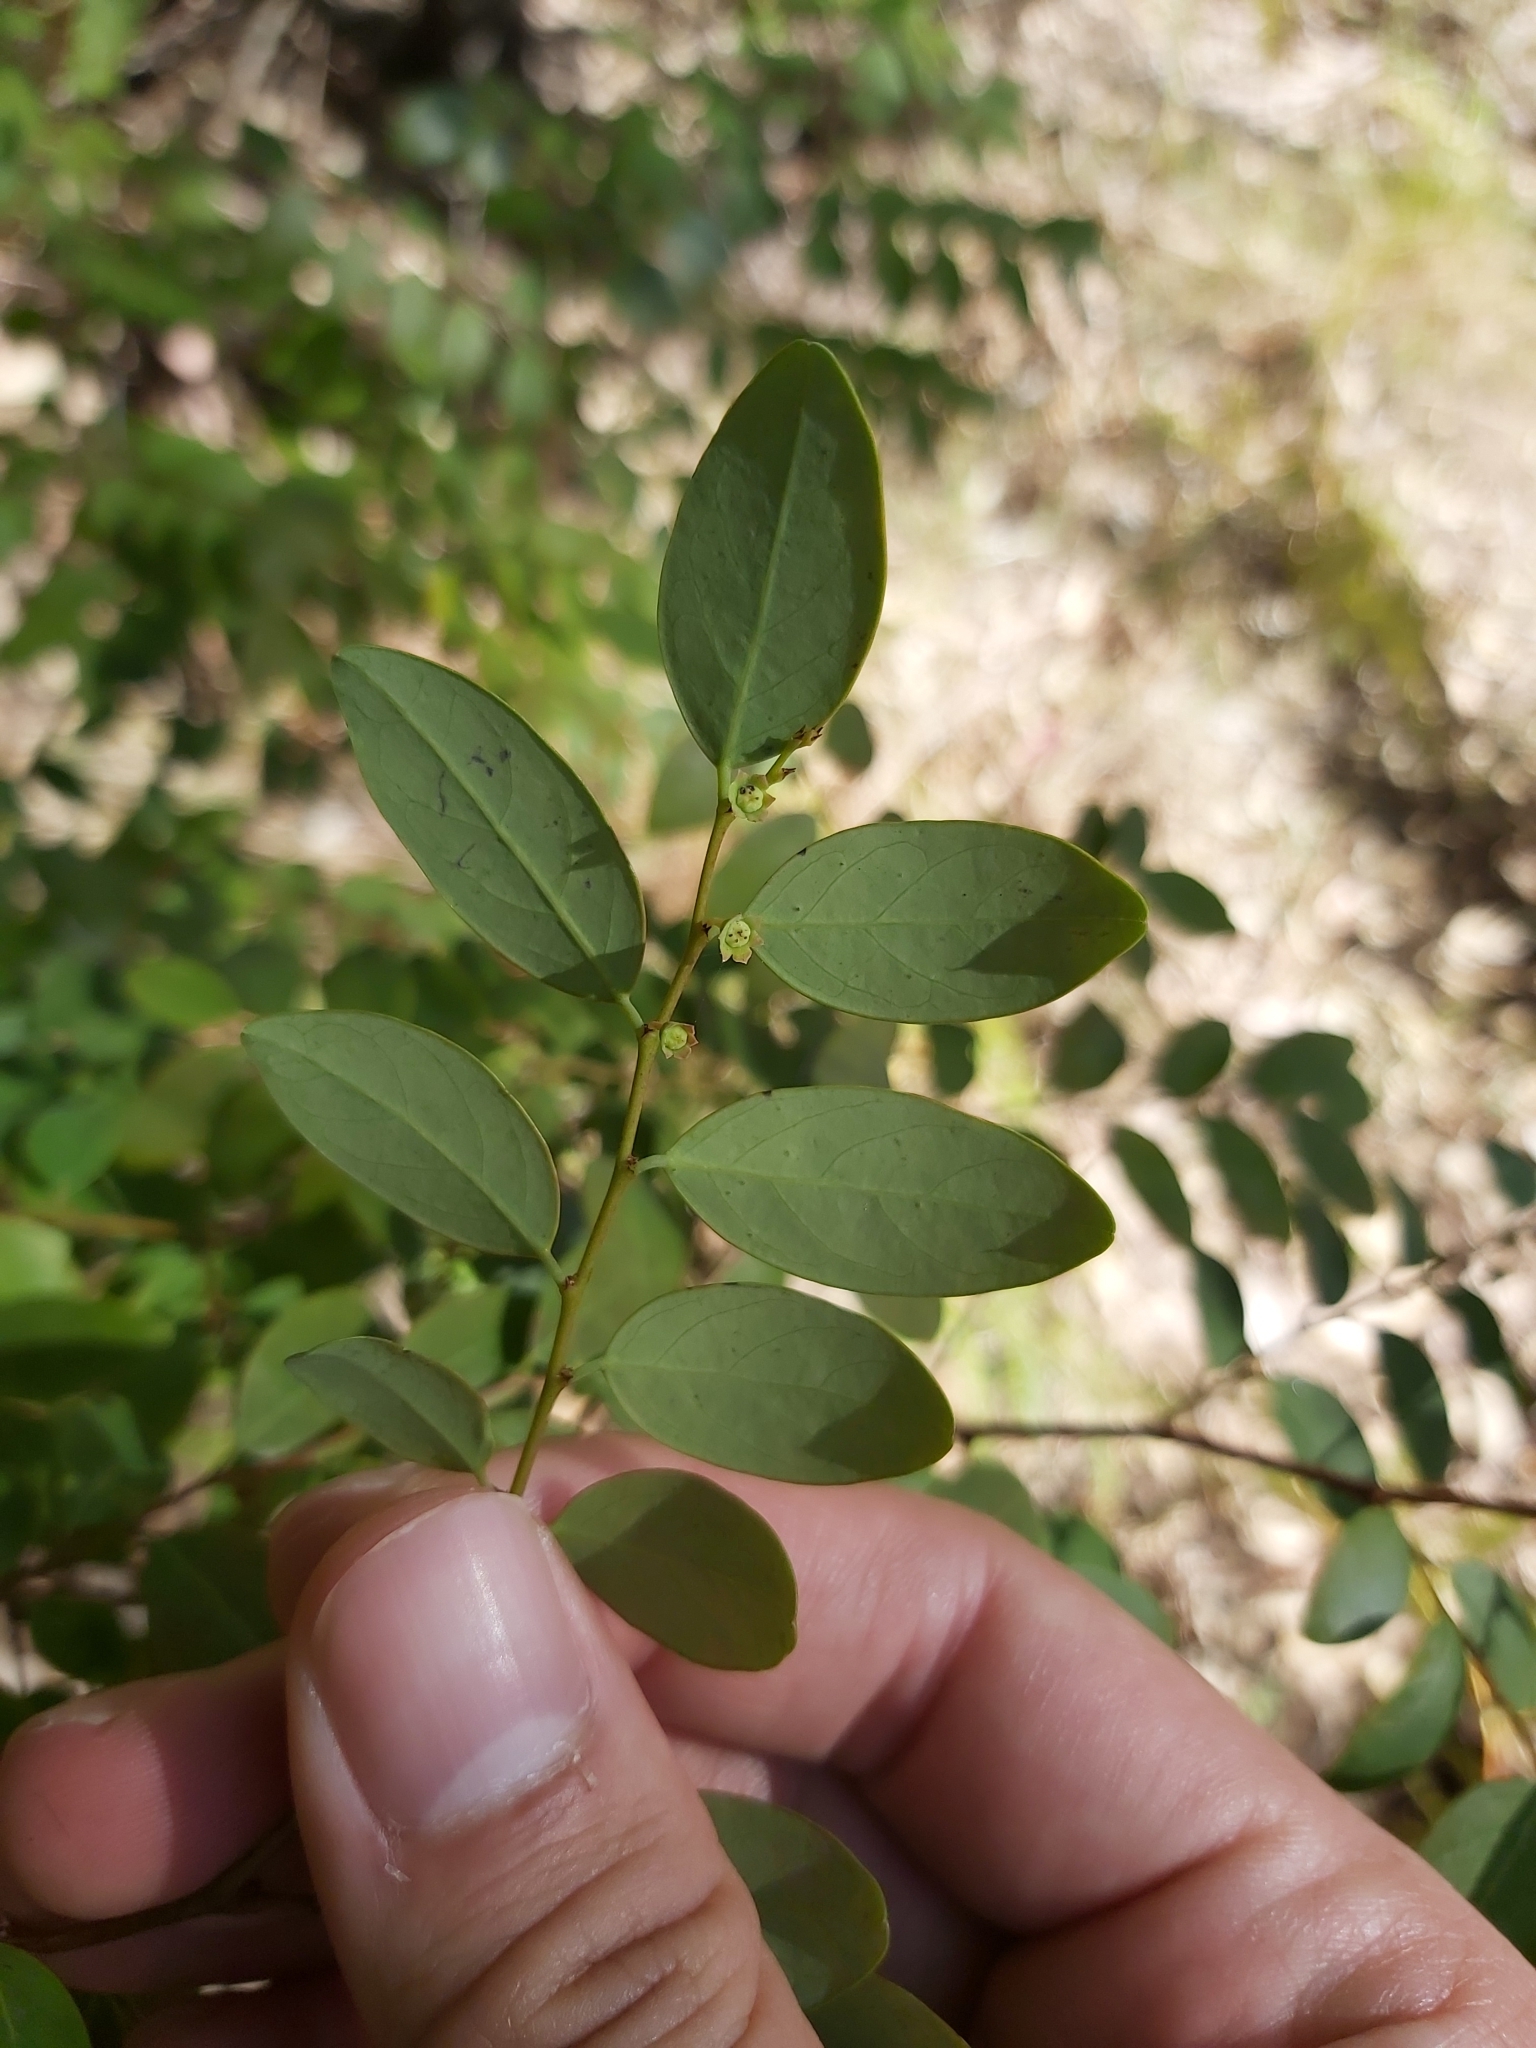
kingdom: Plantae
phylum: Tracheophyta
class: Magnoliopsida
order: Malpighiales
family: Phyllanthaceae
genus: Breynia
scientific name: Breynia oblongifolia
